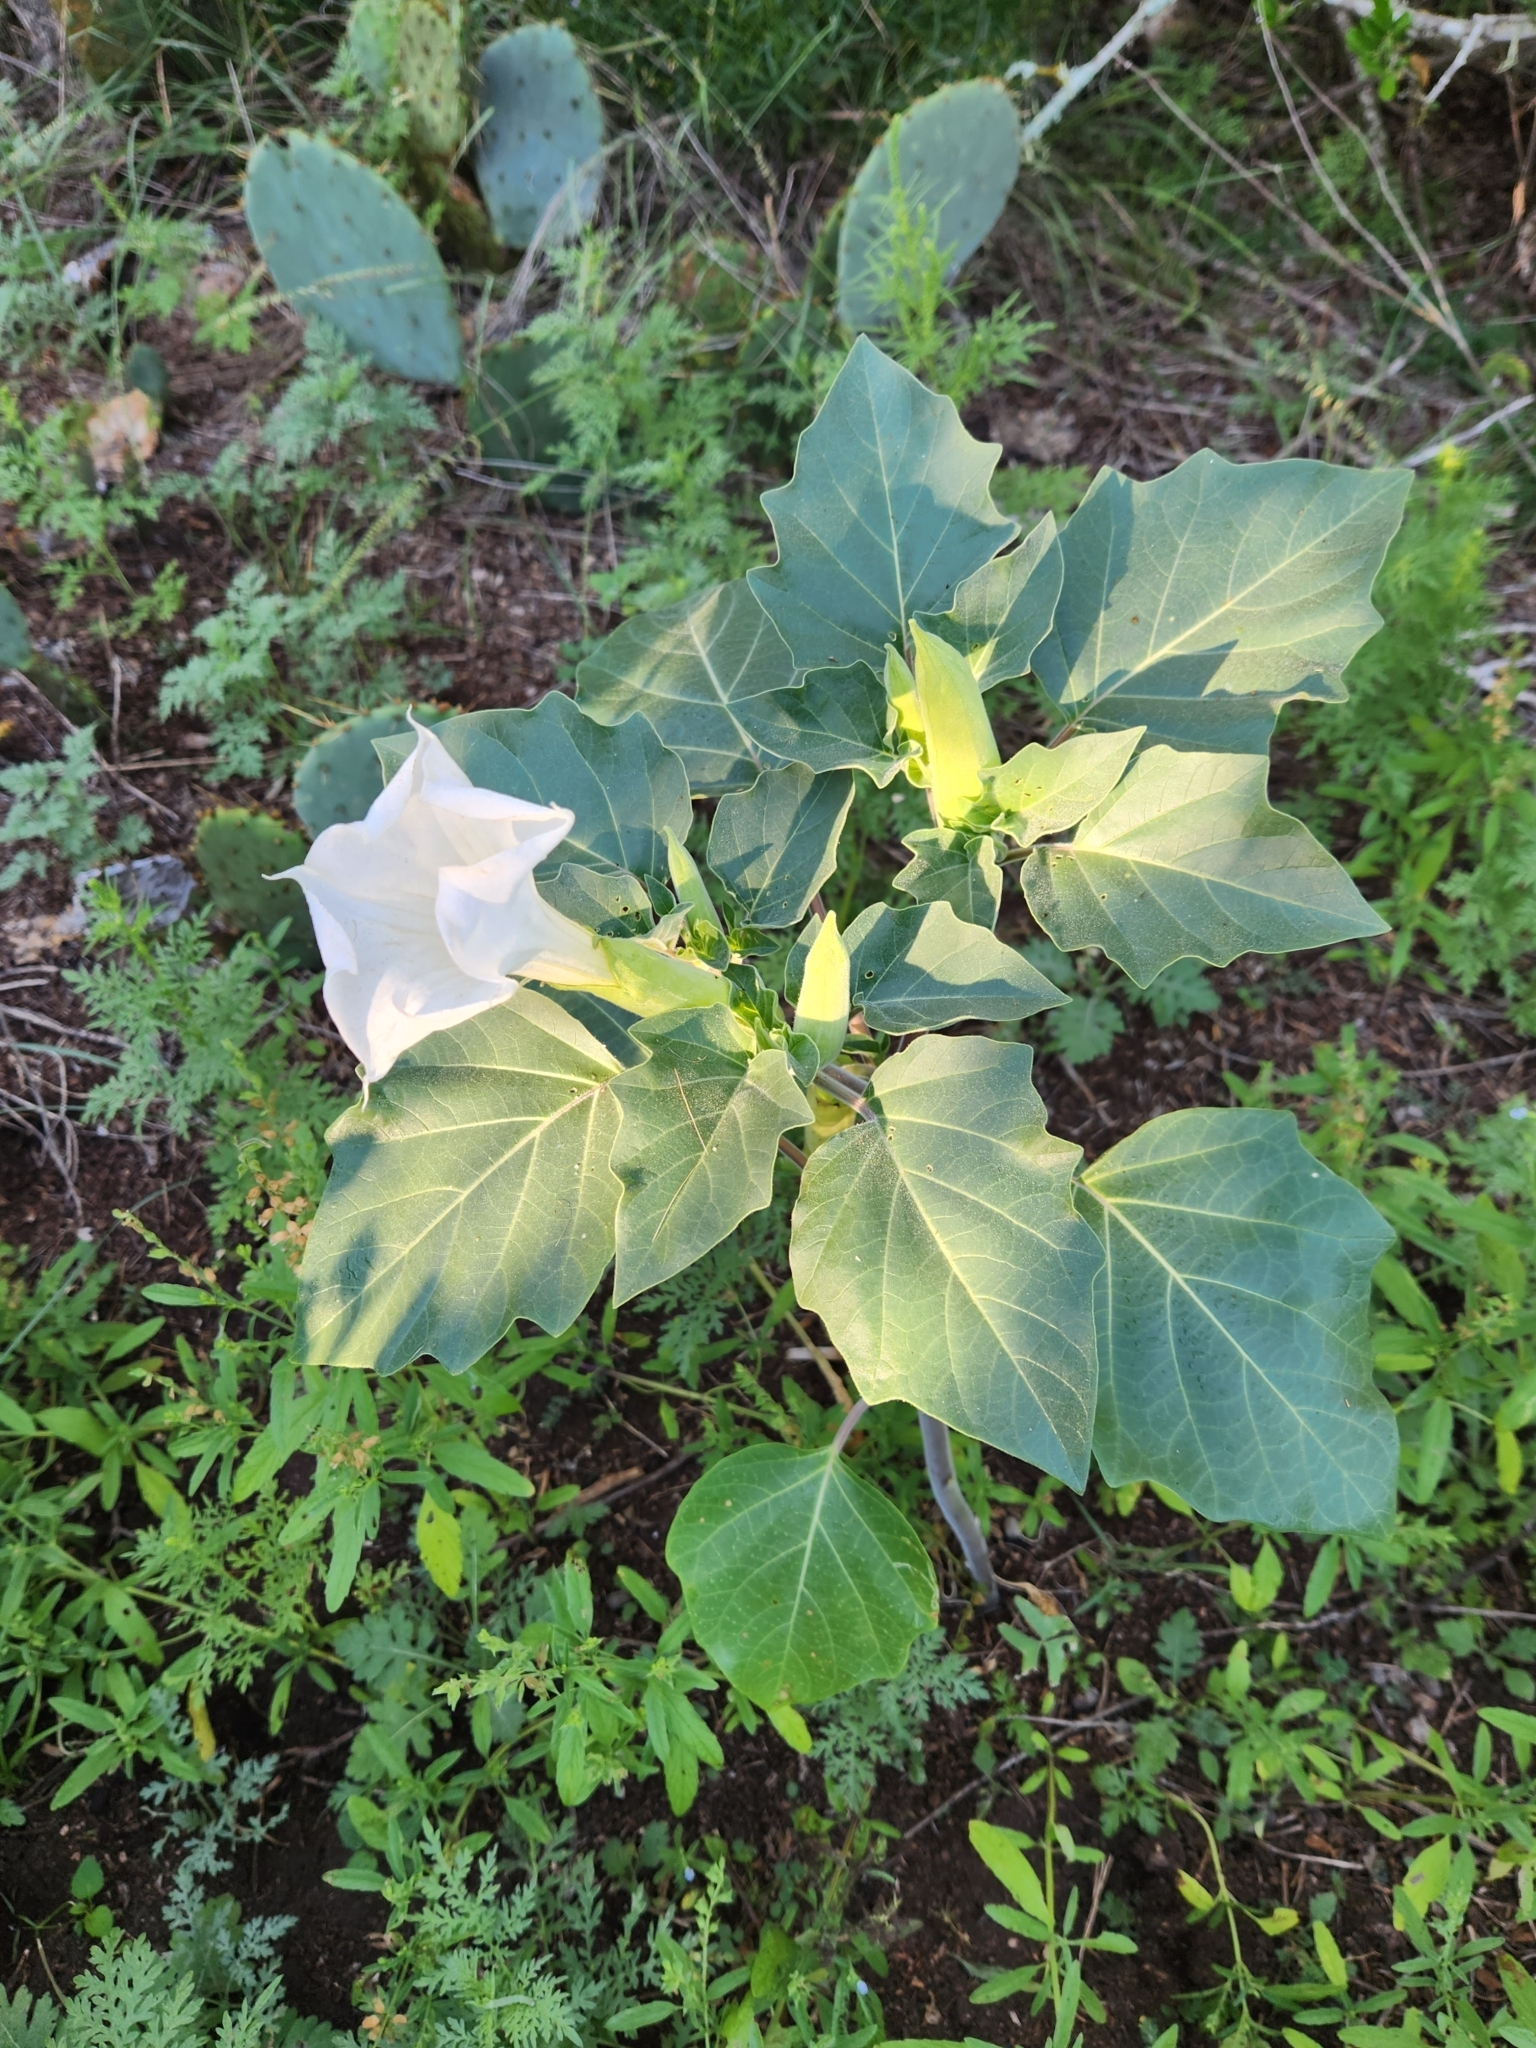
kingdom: Plantae
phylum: Tracheophyta
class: Magnoliopsida
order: Solanales
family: Solanaceae
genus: Datura
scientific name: Datura wrightii
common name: Sacred thorn-apple
